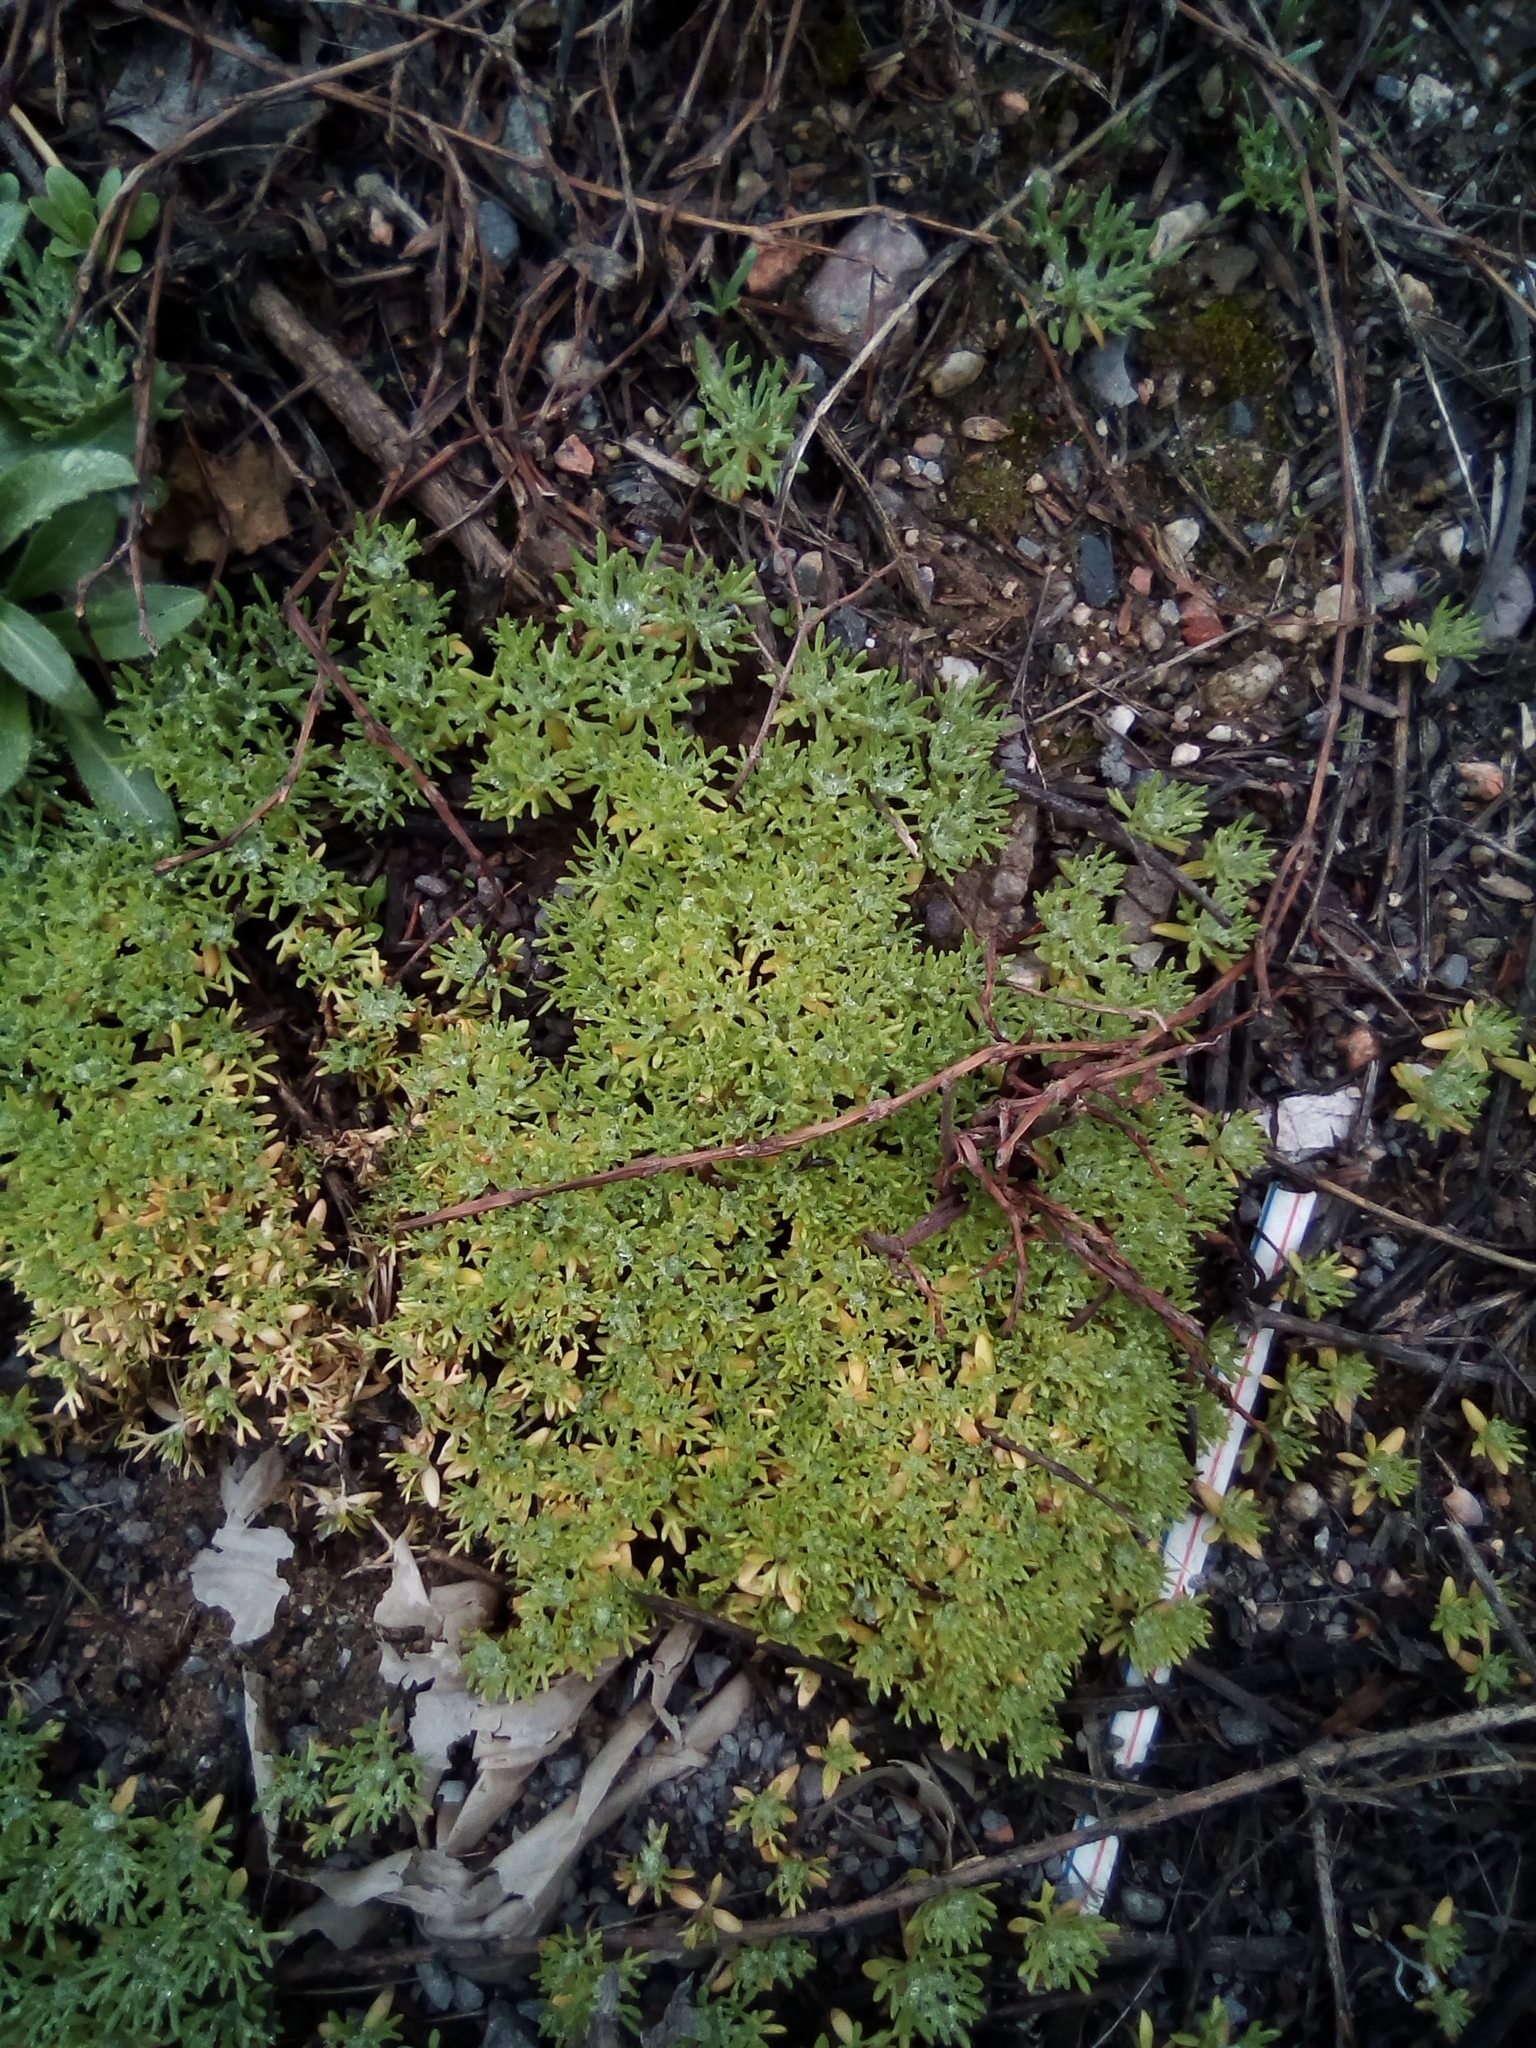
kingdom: Plantae
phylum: Tracheophyta
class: Magnoliopsida
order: Ranunculales
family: Ranunculaceae
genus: Ceratocephala
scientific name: Ceratocephala orthoceras
